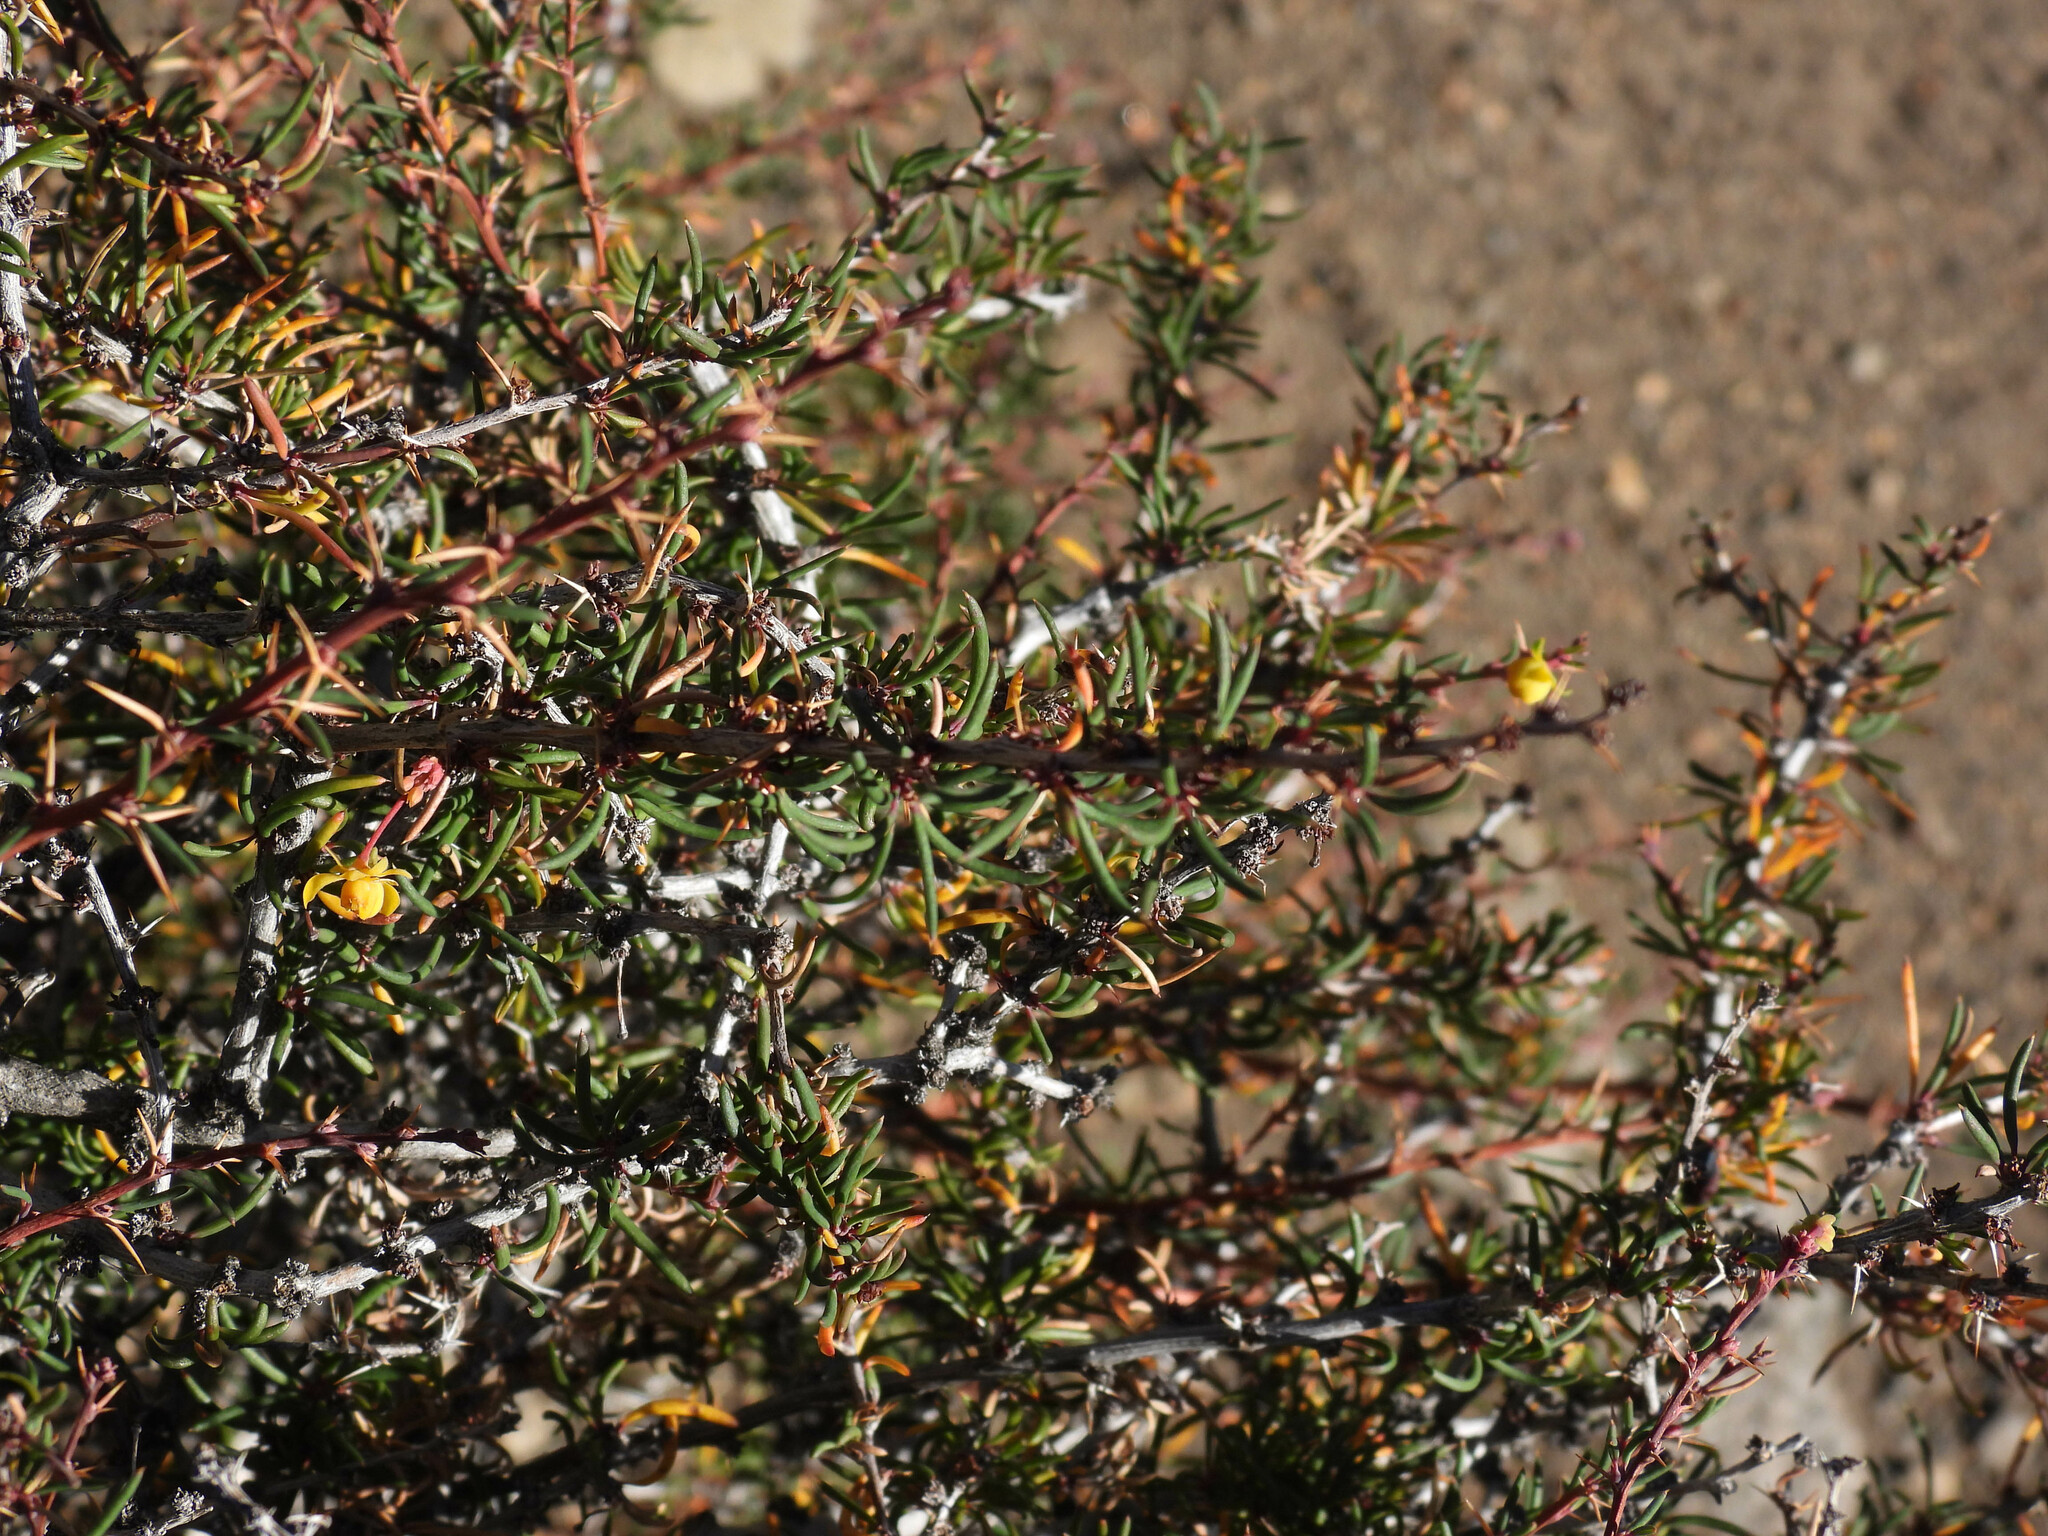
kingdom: Plantae
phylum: Tracheophyta
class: Magnoliopsida
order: Ranunculales
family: Berberidaceae
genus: Berberis
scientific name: Berberis empetrifolia
